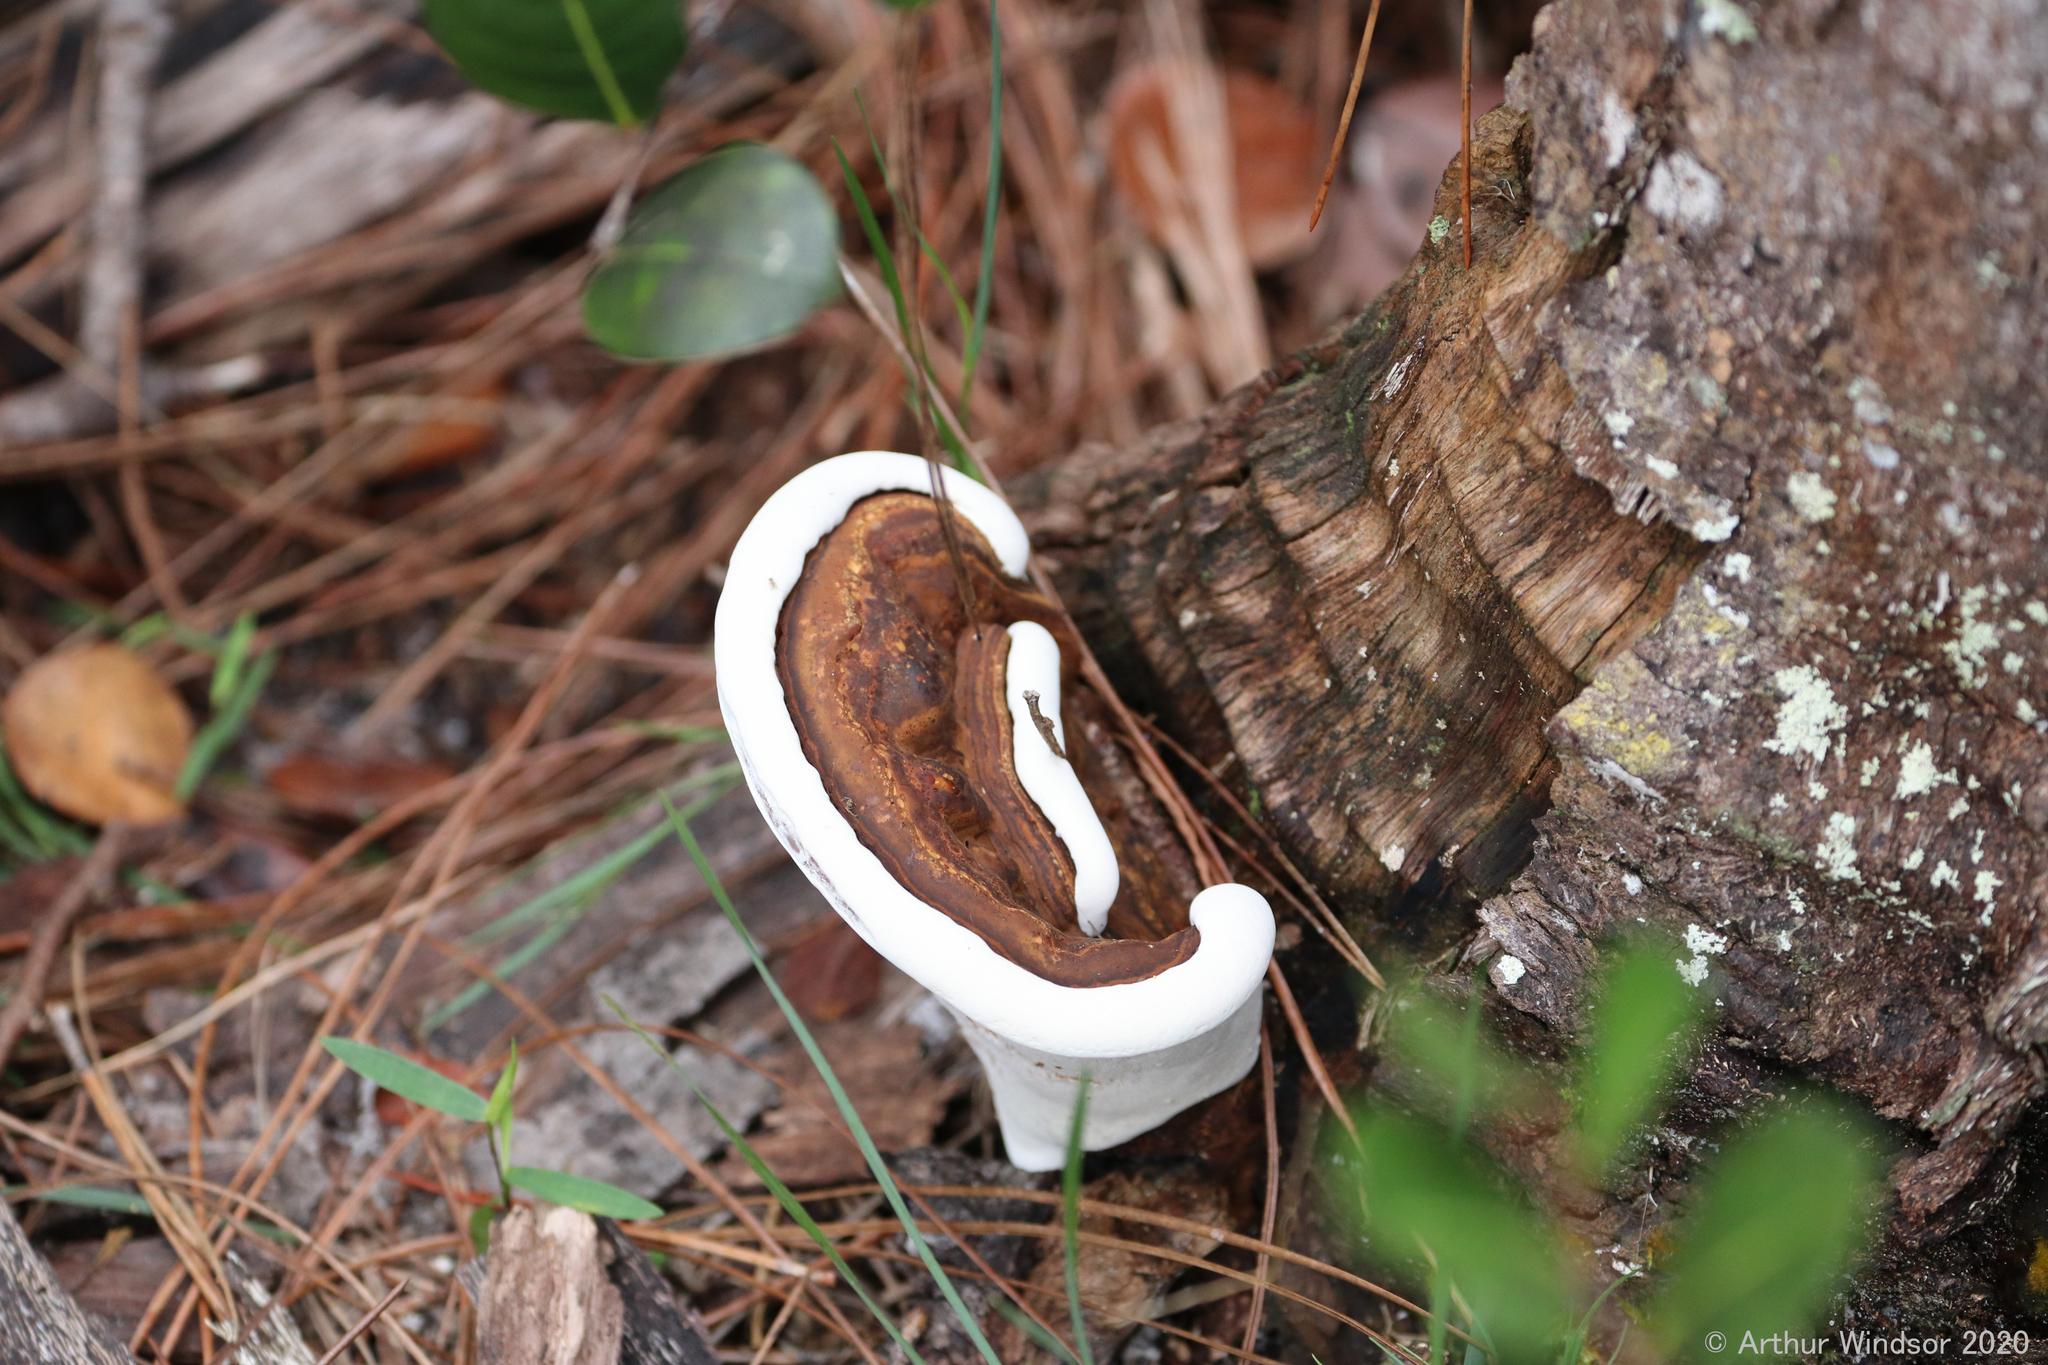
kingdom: Fungi
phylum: Basidiomycota
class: Agaricomycetes
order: Polyporales
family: Polyporaceae
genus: Ganoderma
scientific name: Ganoderma zonatum
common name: Ganoderma butt rot
